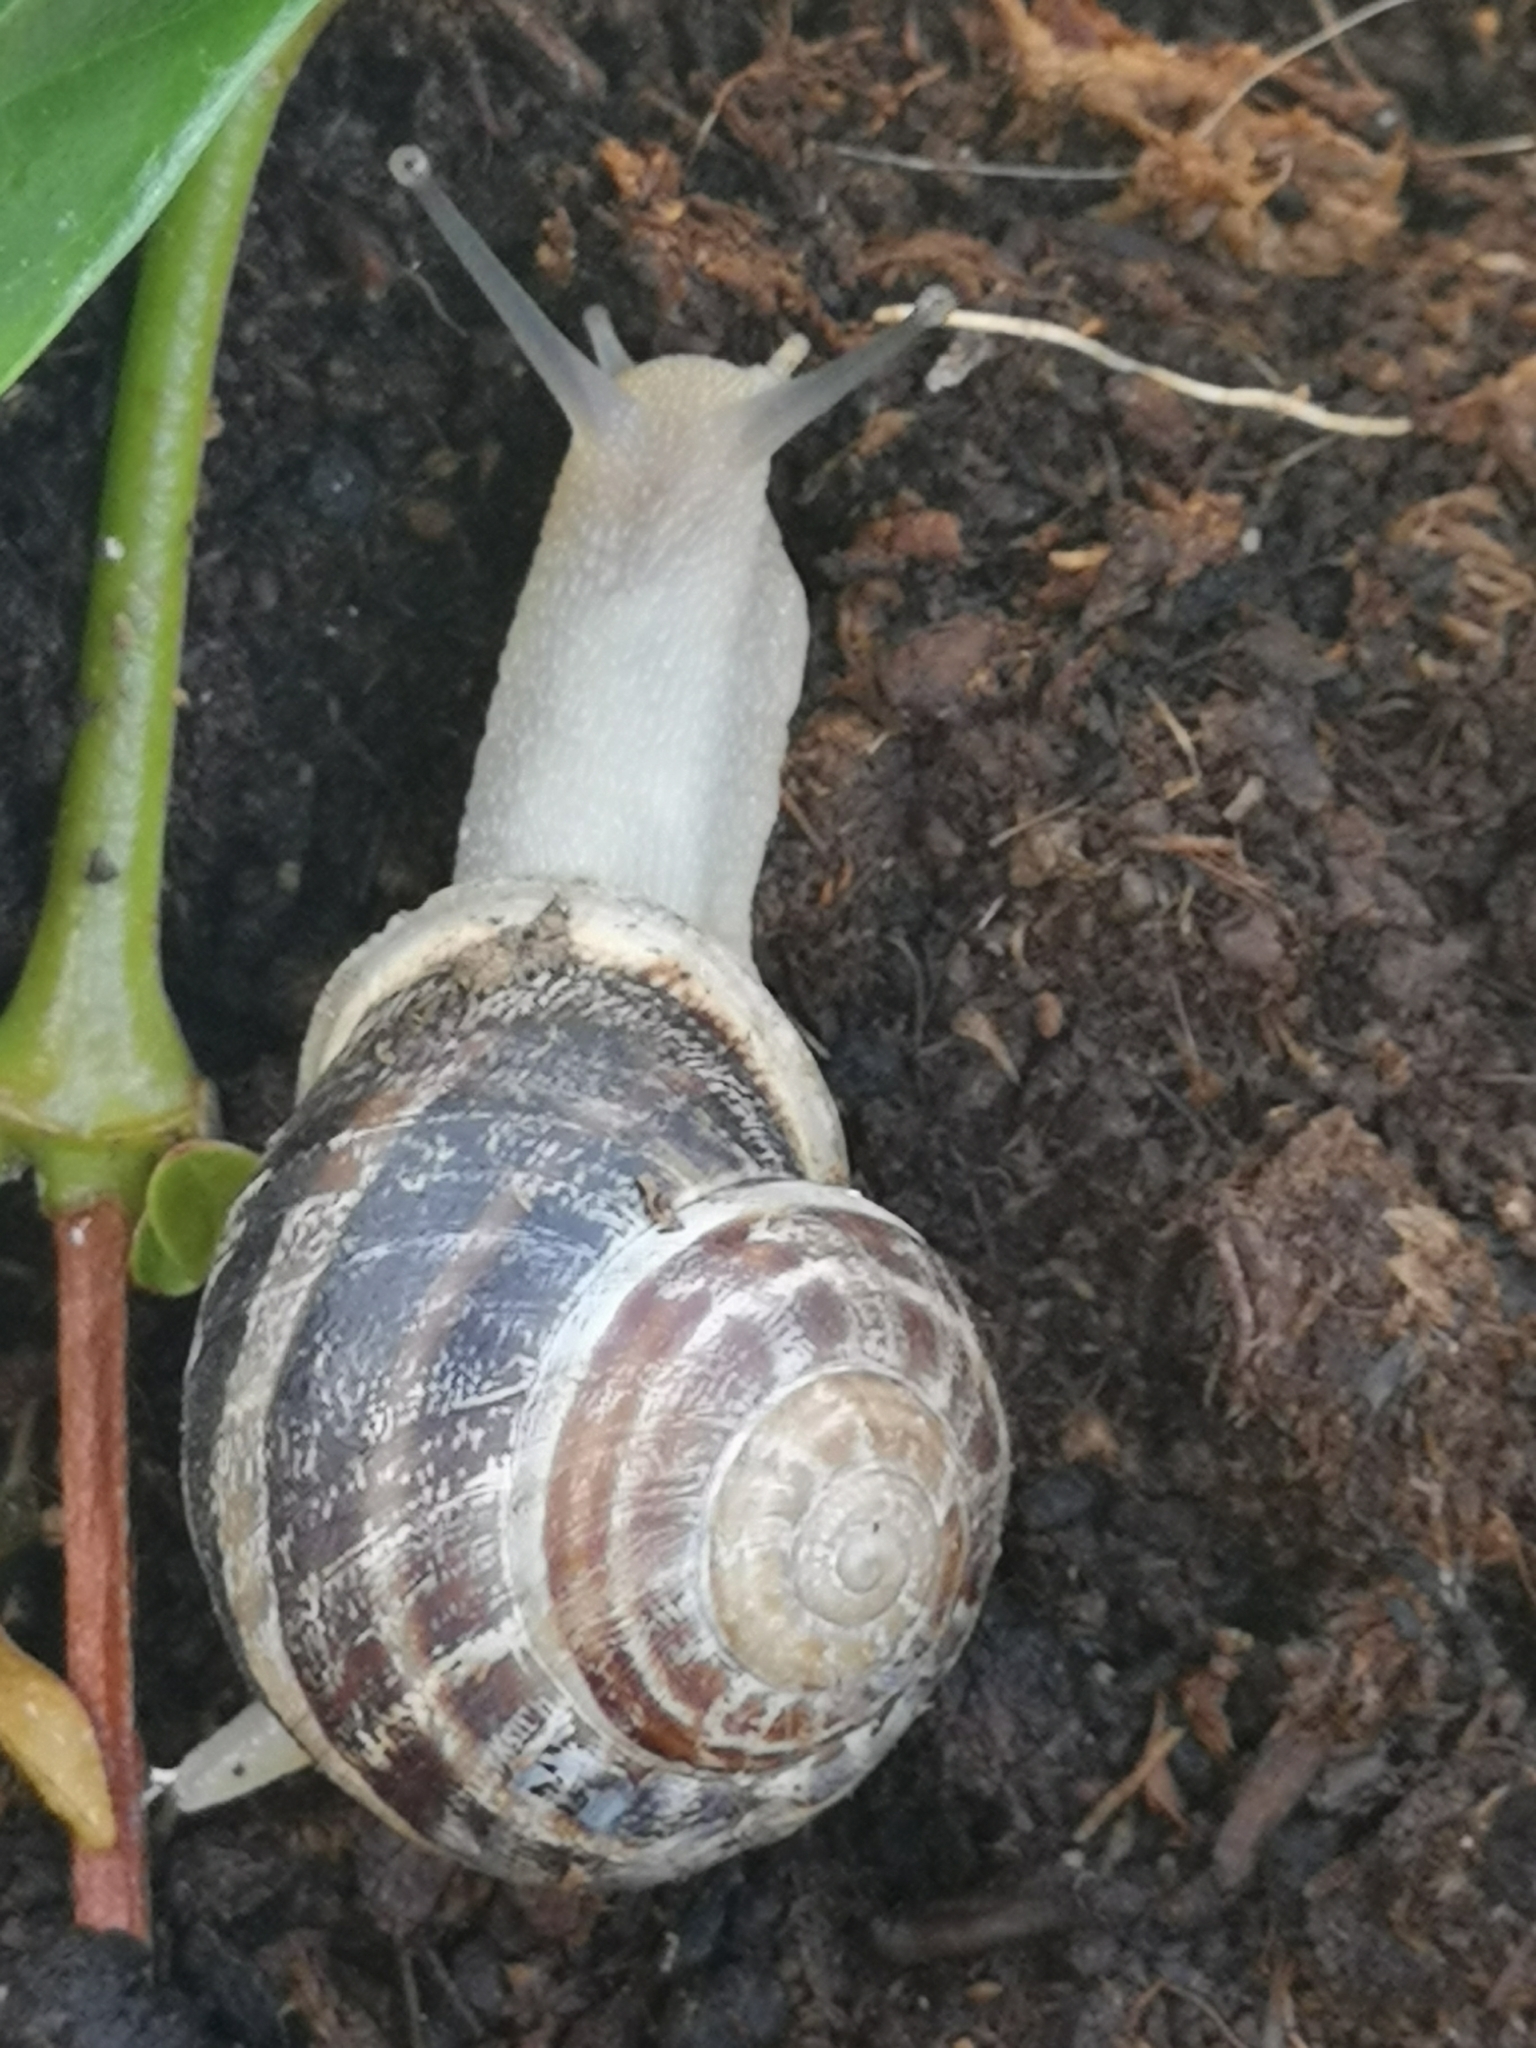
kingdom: Animalia
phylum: Mollusca
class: Gastropoda
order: Stylommatophora
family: Helicidae
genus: Eobania
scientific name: Eobania vermiculata
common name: Chocolateband snail
